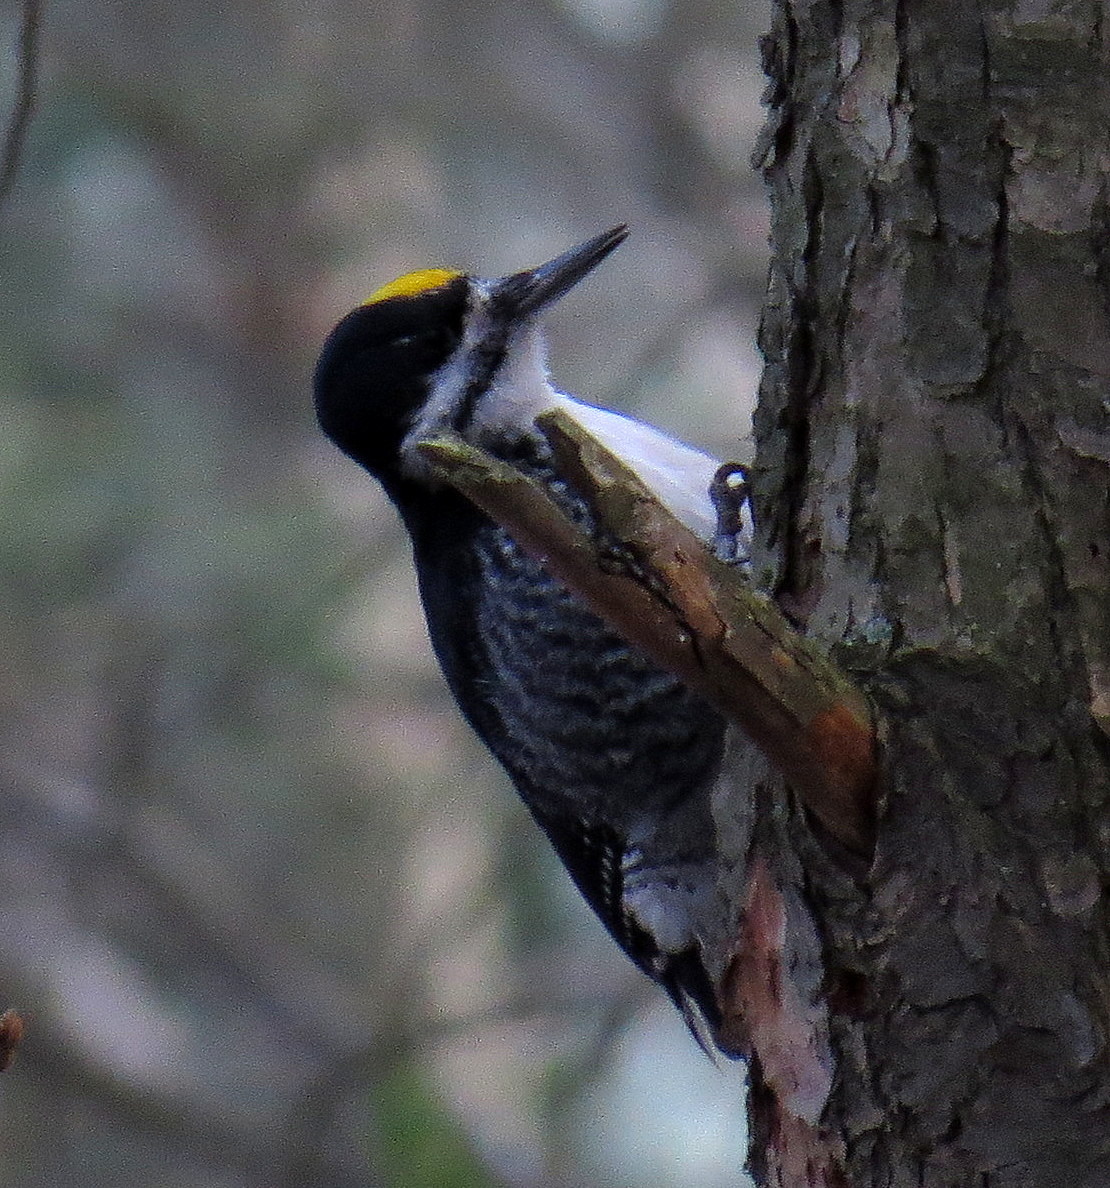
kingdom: Animalia
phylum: Chordata
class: Aves
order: Piciformes
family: Picidae
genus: Picoides
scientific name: Picoides arcticus
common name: Black-backed woodpecker
